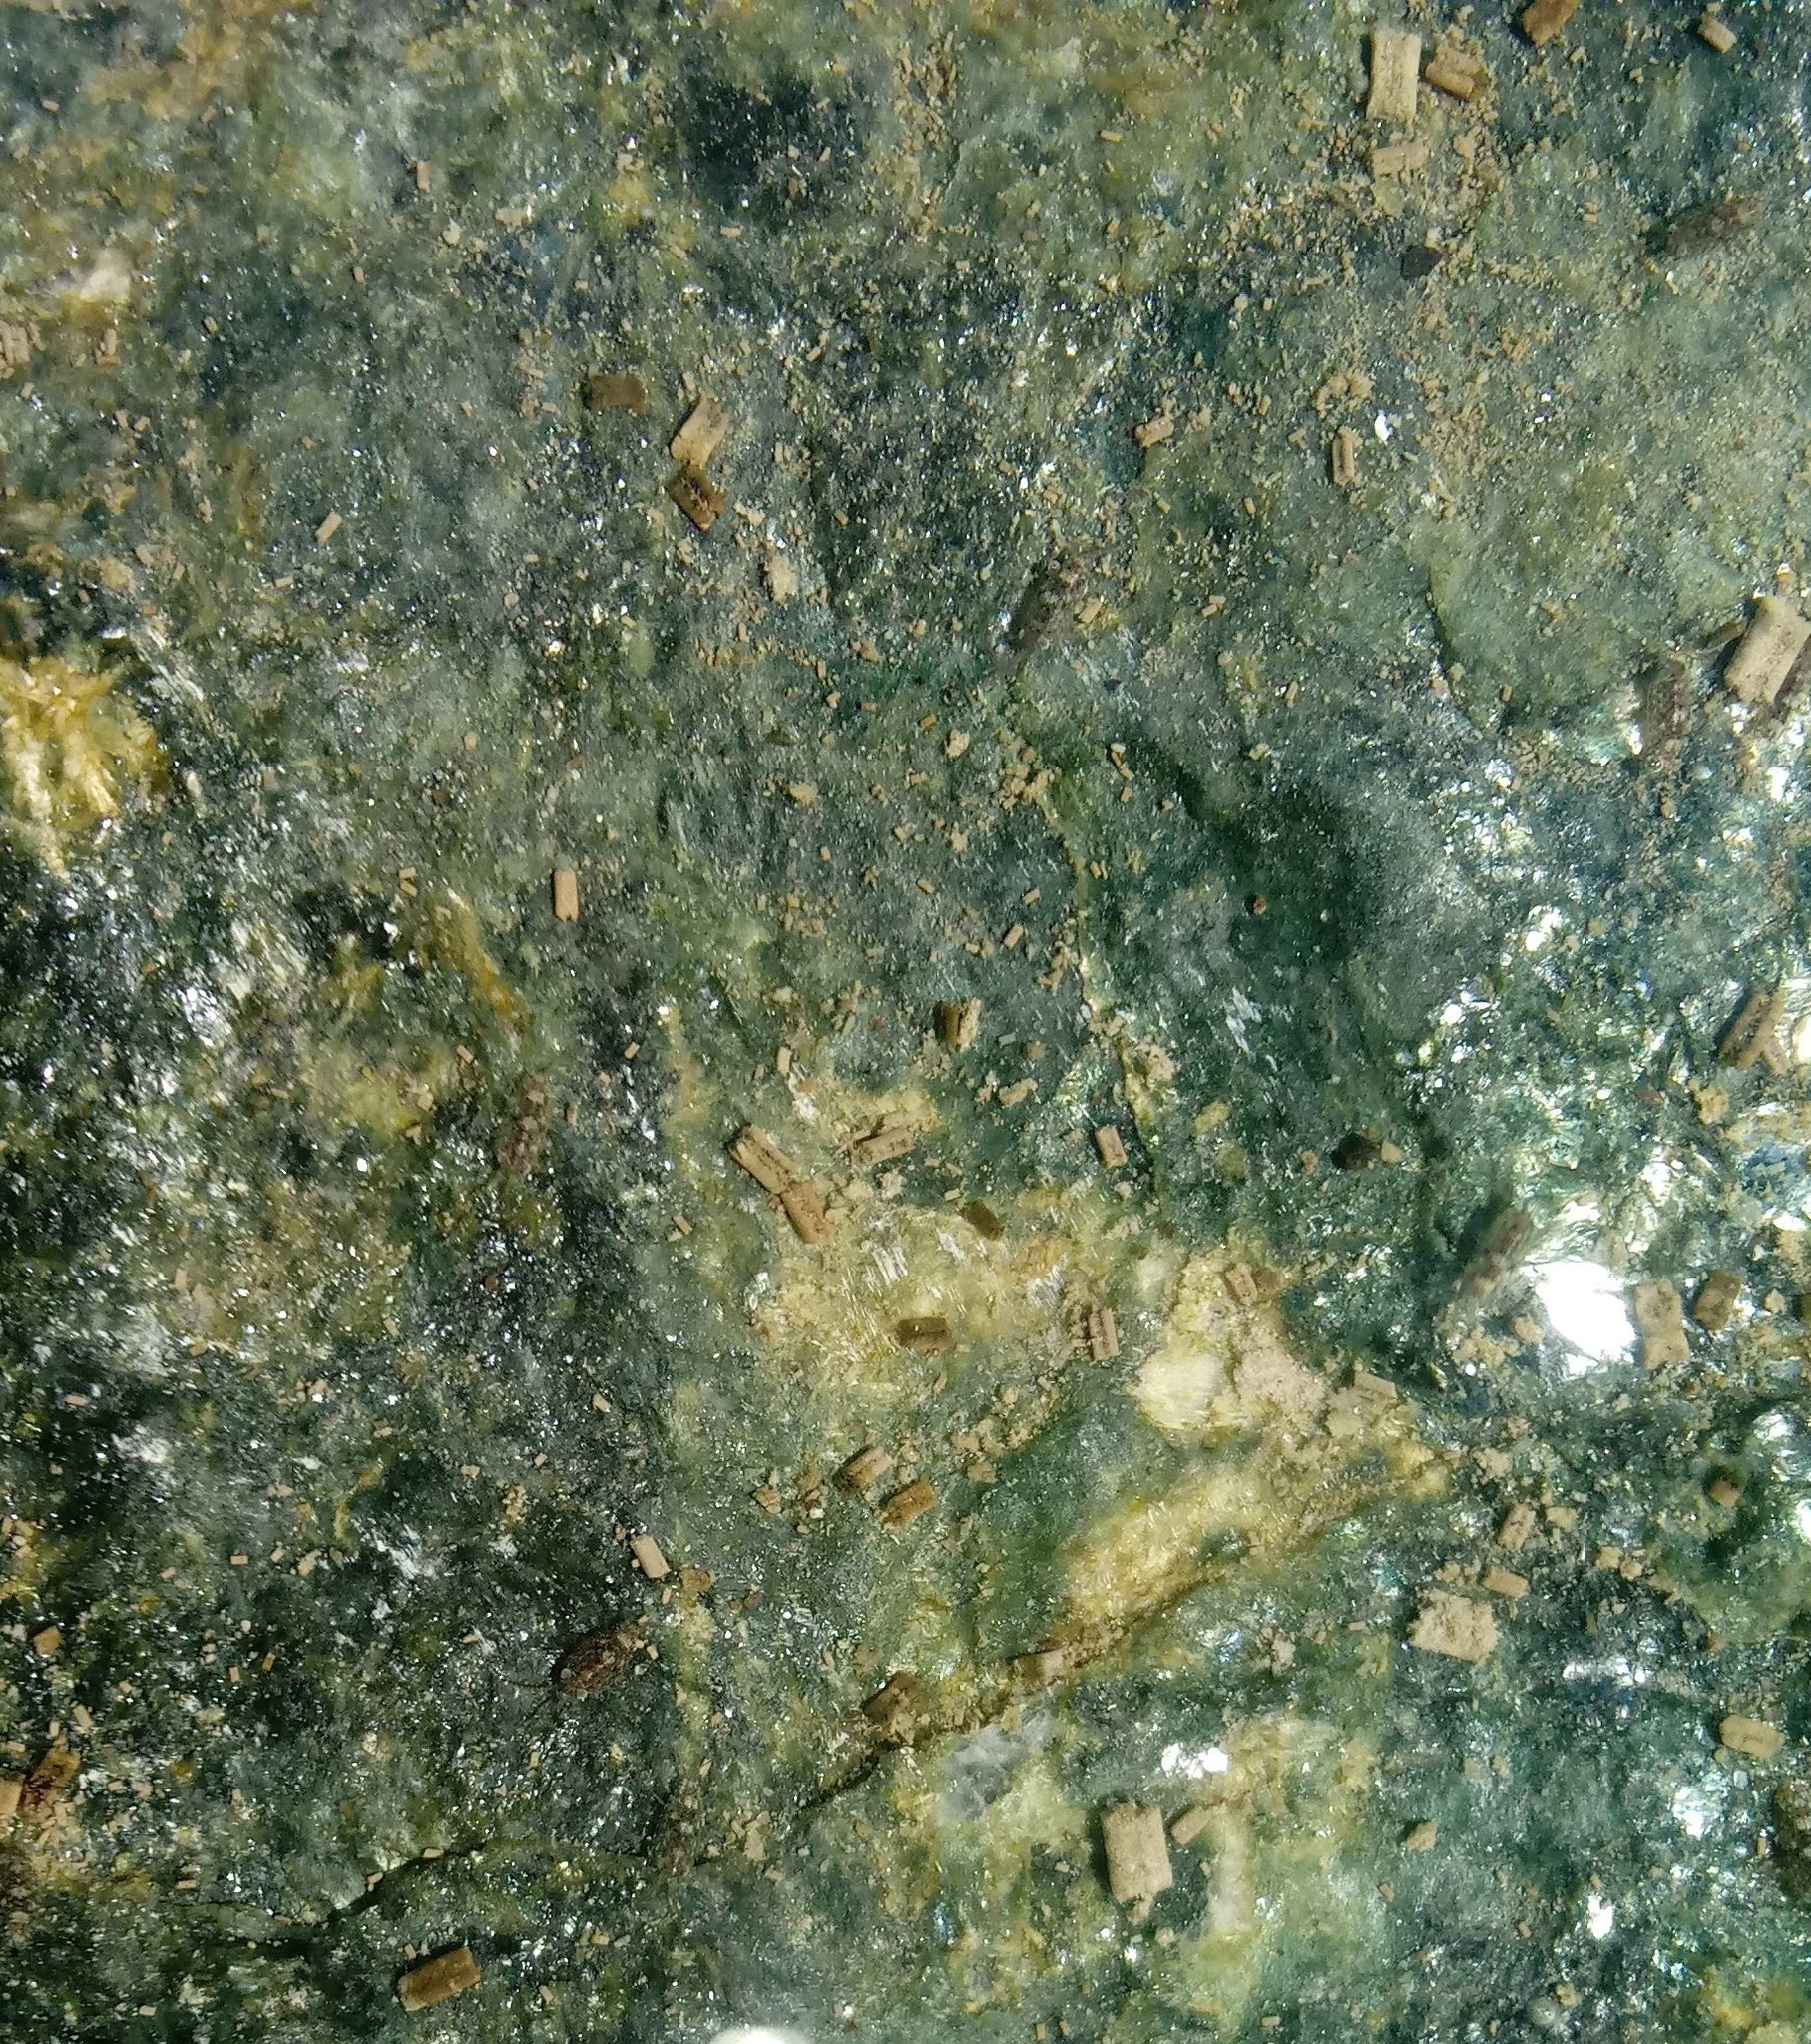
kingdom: Animalia
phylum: Arthropoda
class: Malacostraca
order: Isopoda
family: Ligiidae
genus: Ligia
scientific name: Ligia exotica
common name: Wharf roach
